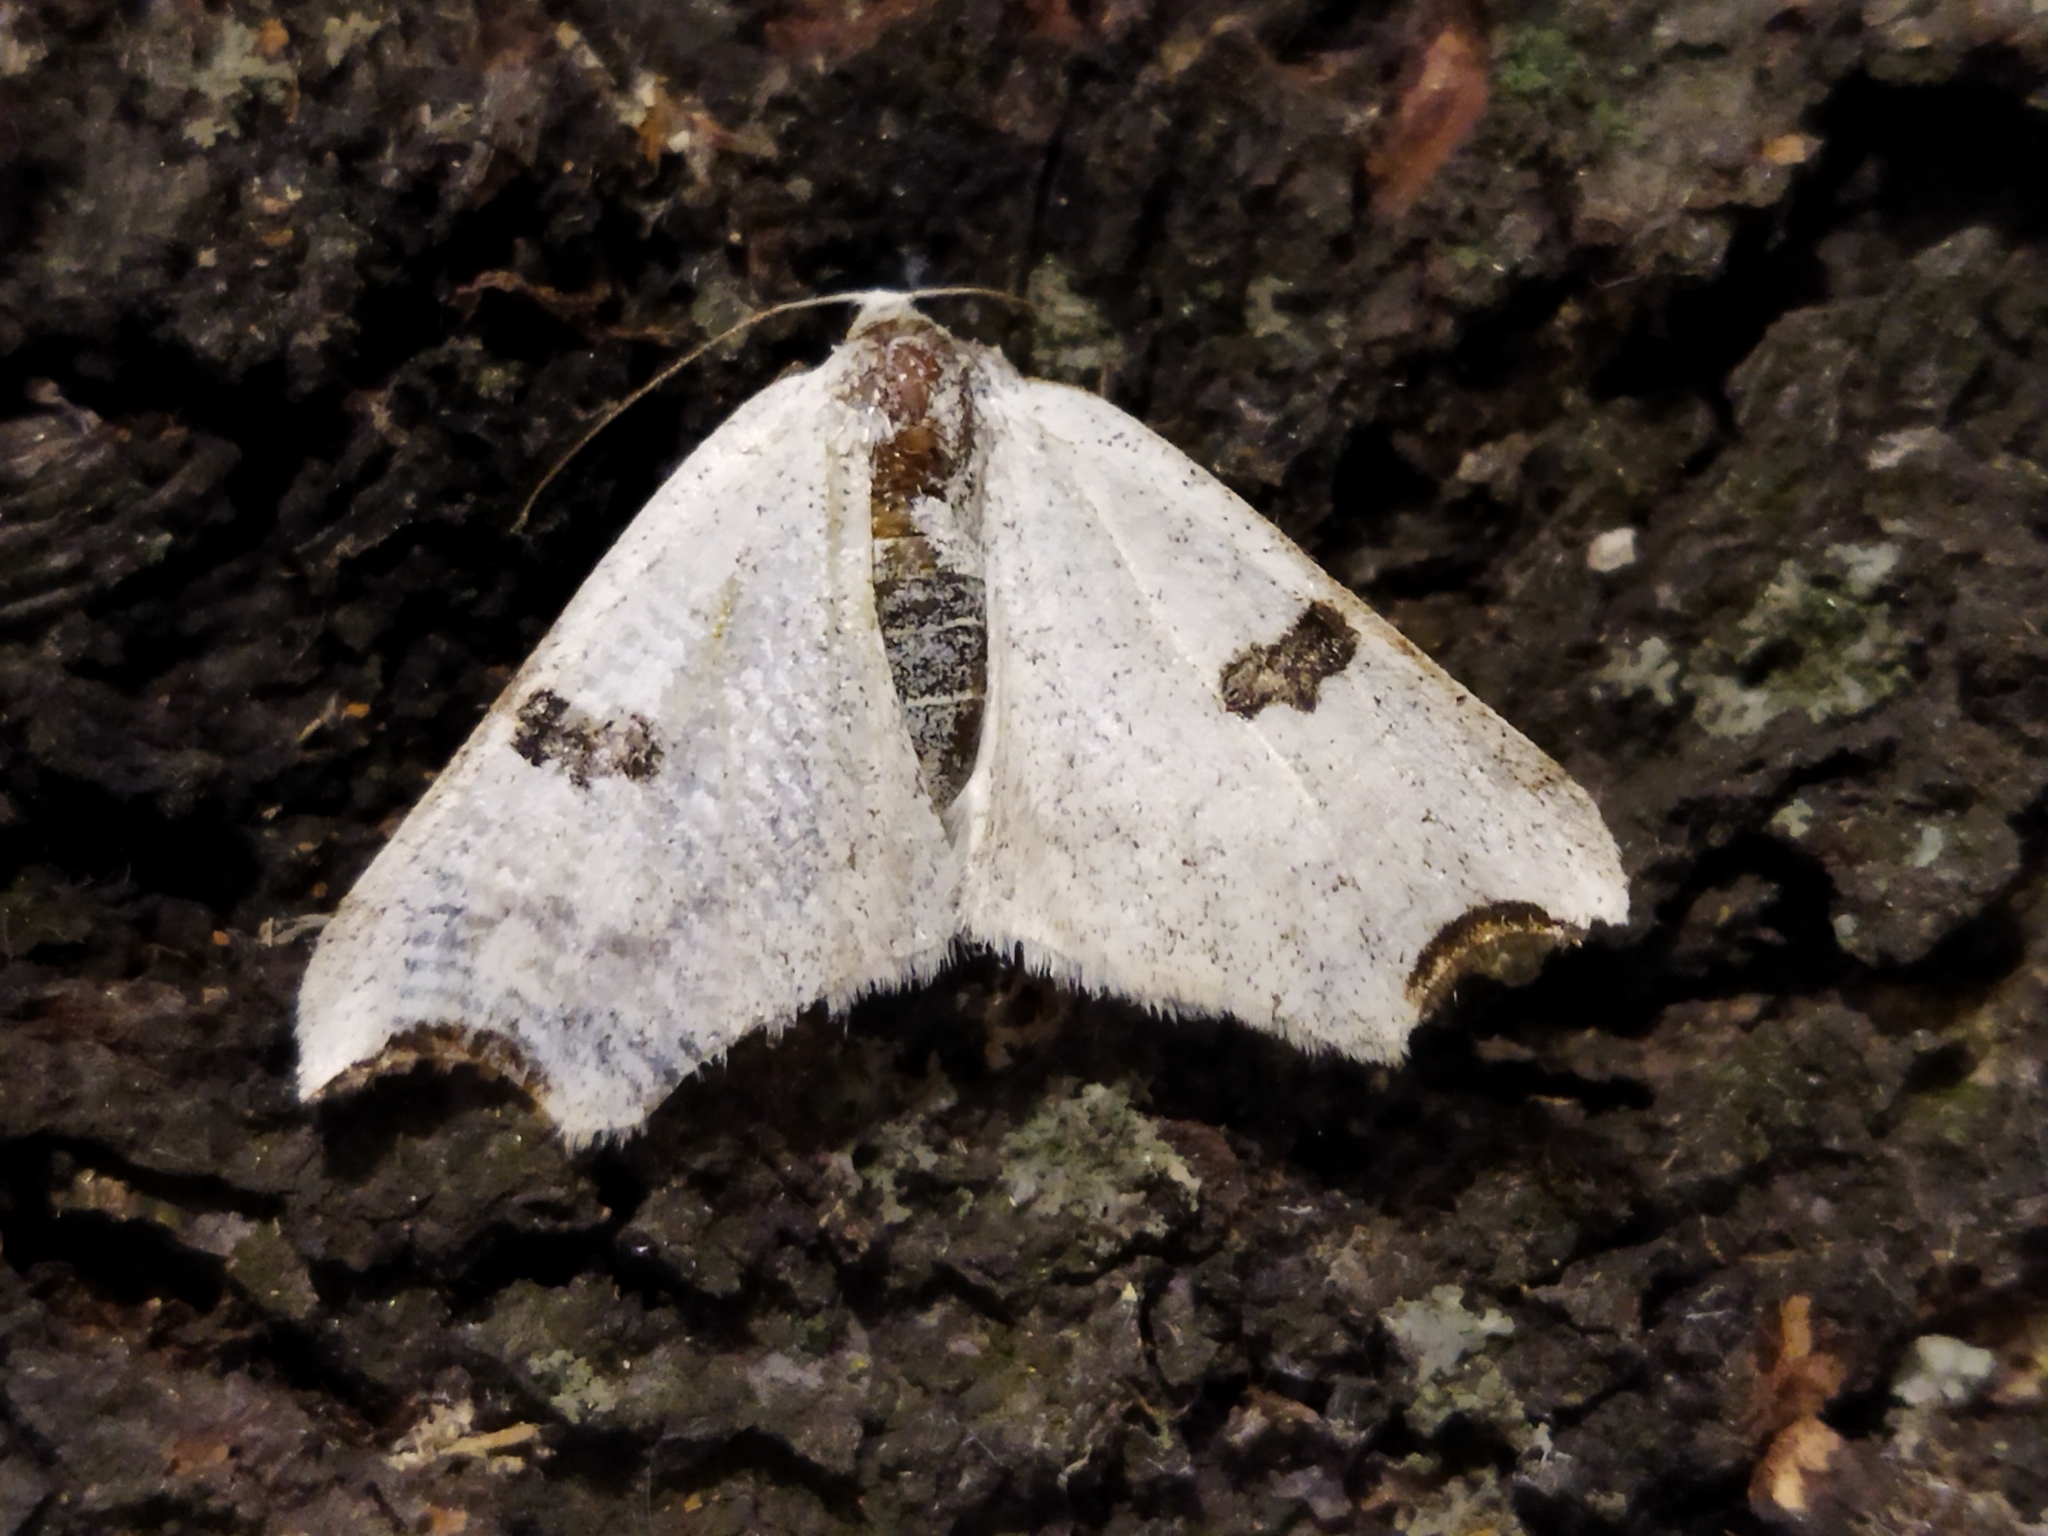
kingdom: Animalia
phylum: Arthropoda
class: Insecta
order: Lepidoptera
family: Geometridae
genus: Eilicrinia
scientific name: Eilicrinia cordiaria
